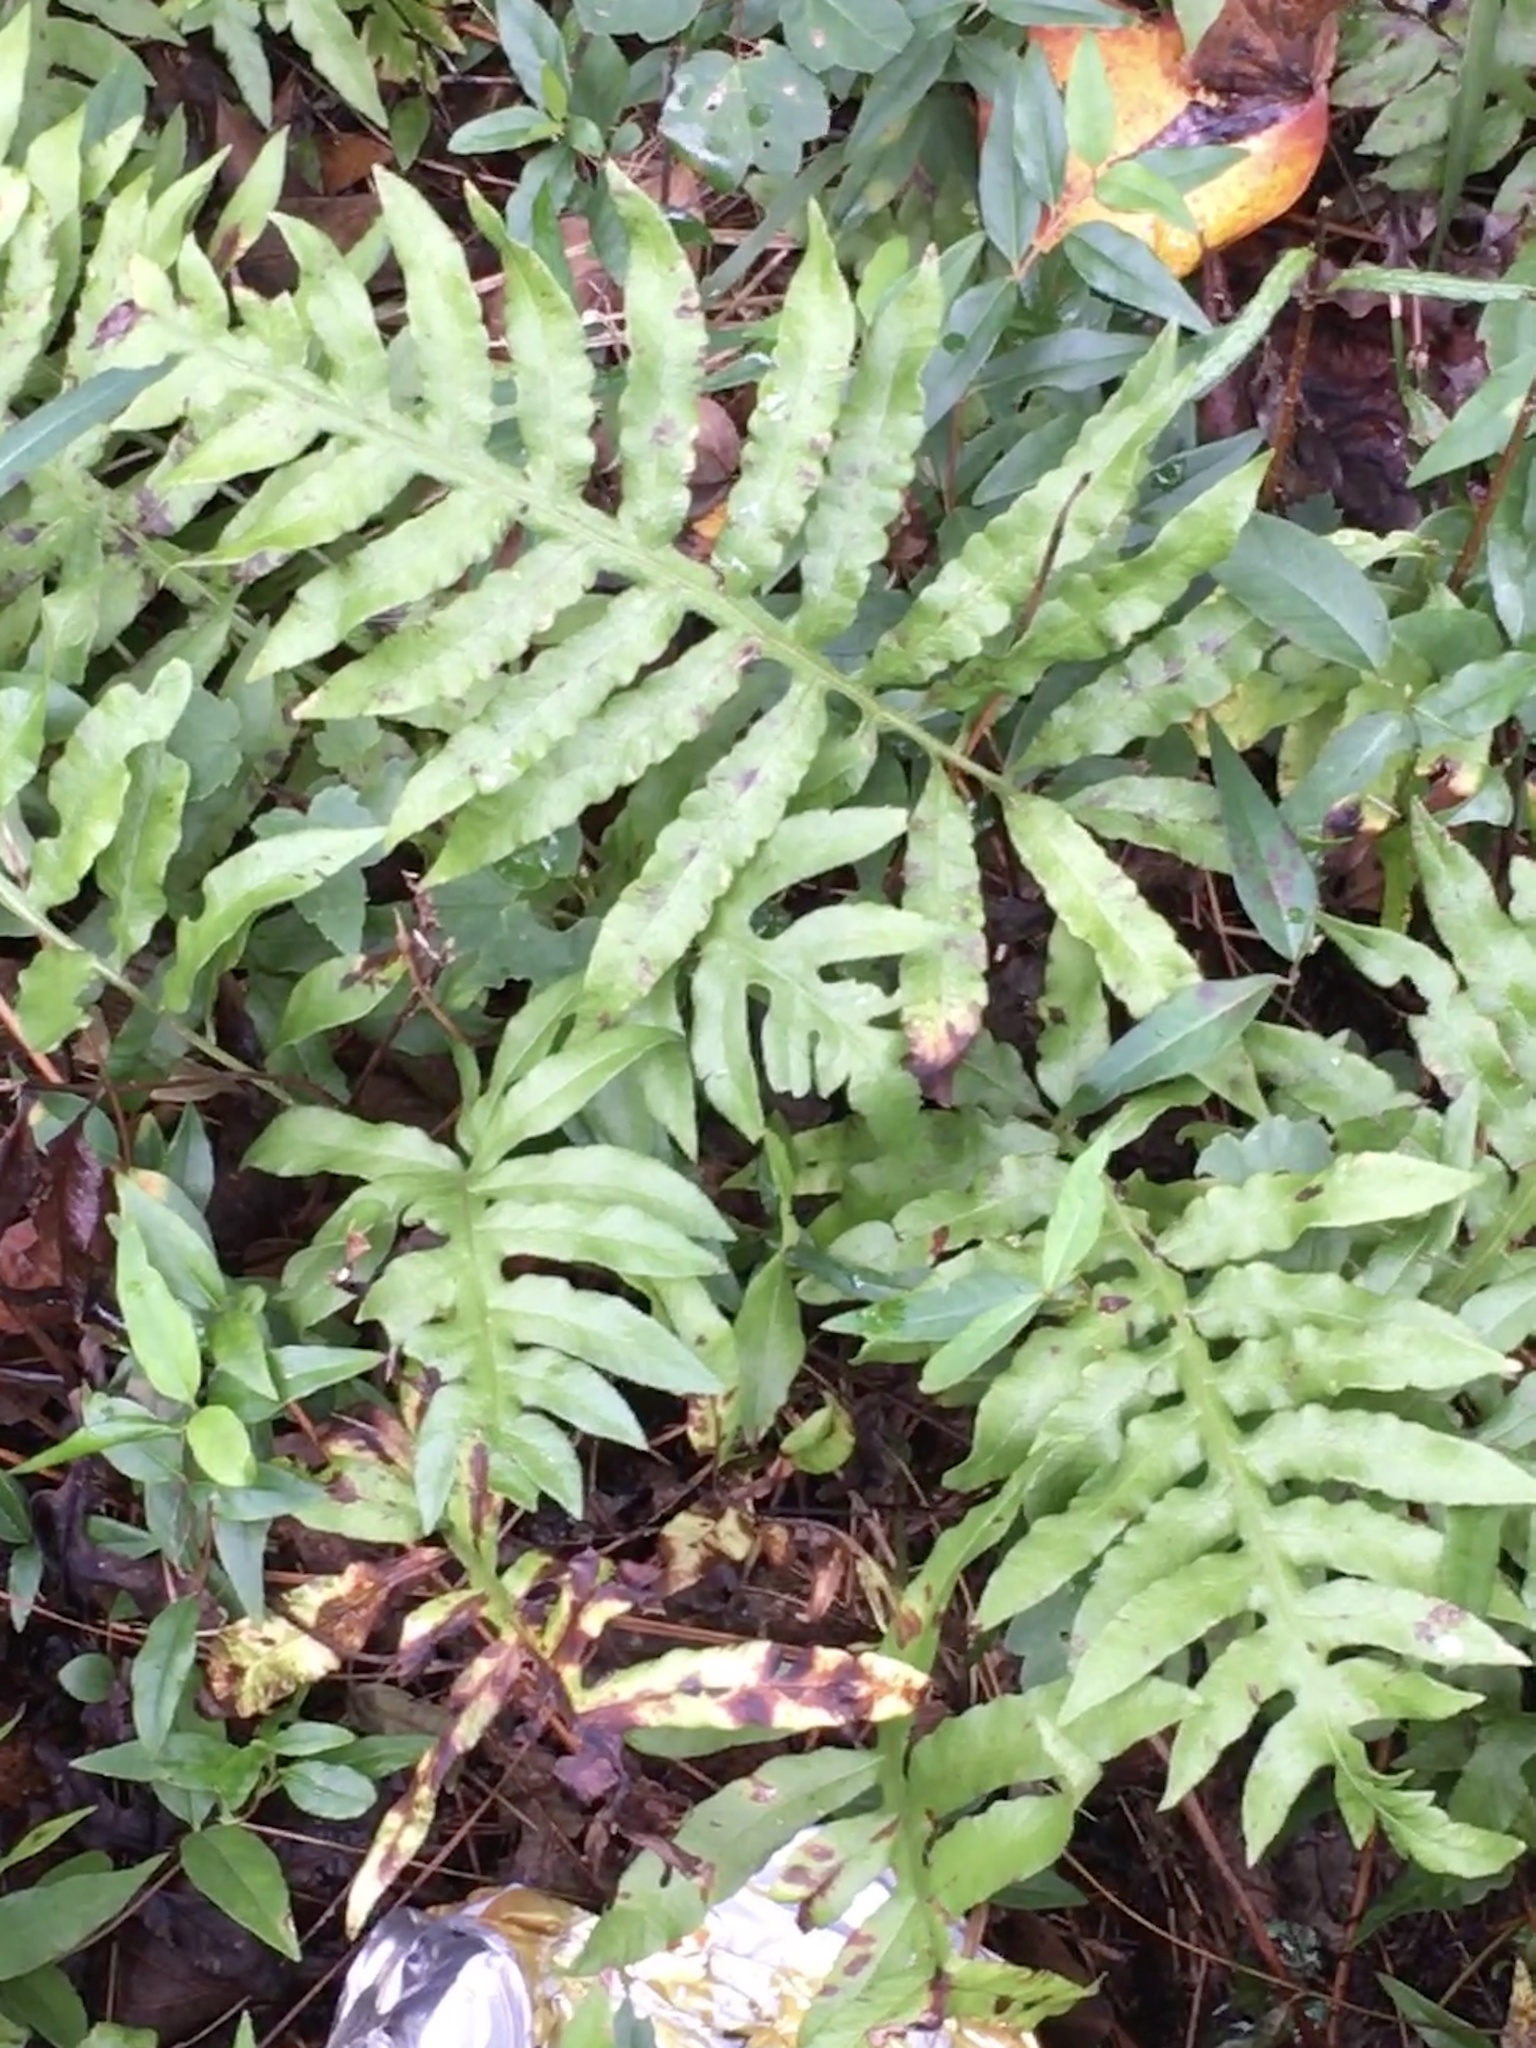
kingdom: Plantae
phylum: Tracheophyta
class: Polypodiopsida
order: Polypodiales
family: Blechnaceae
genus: Lorinseria
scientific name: Lorinseria areolata
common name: Dwarf chain fern
